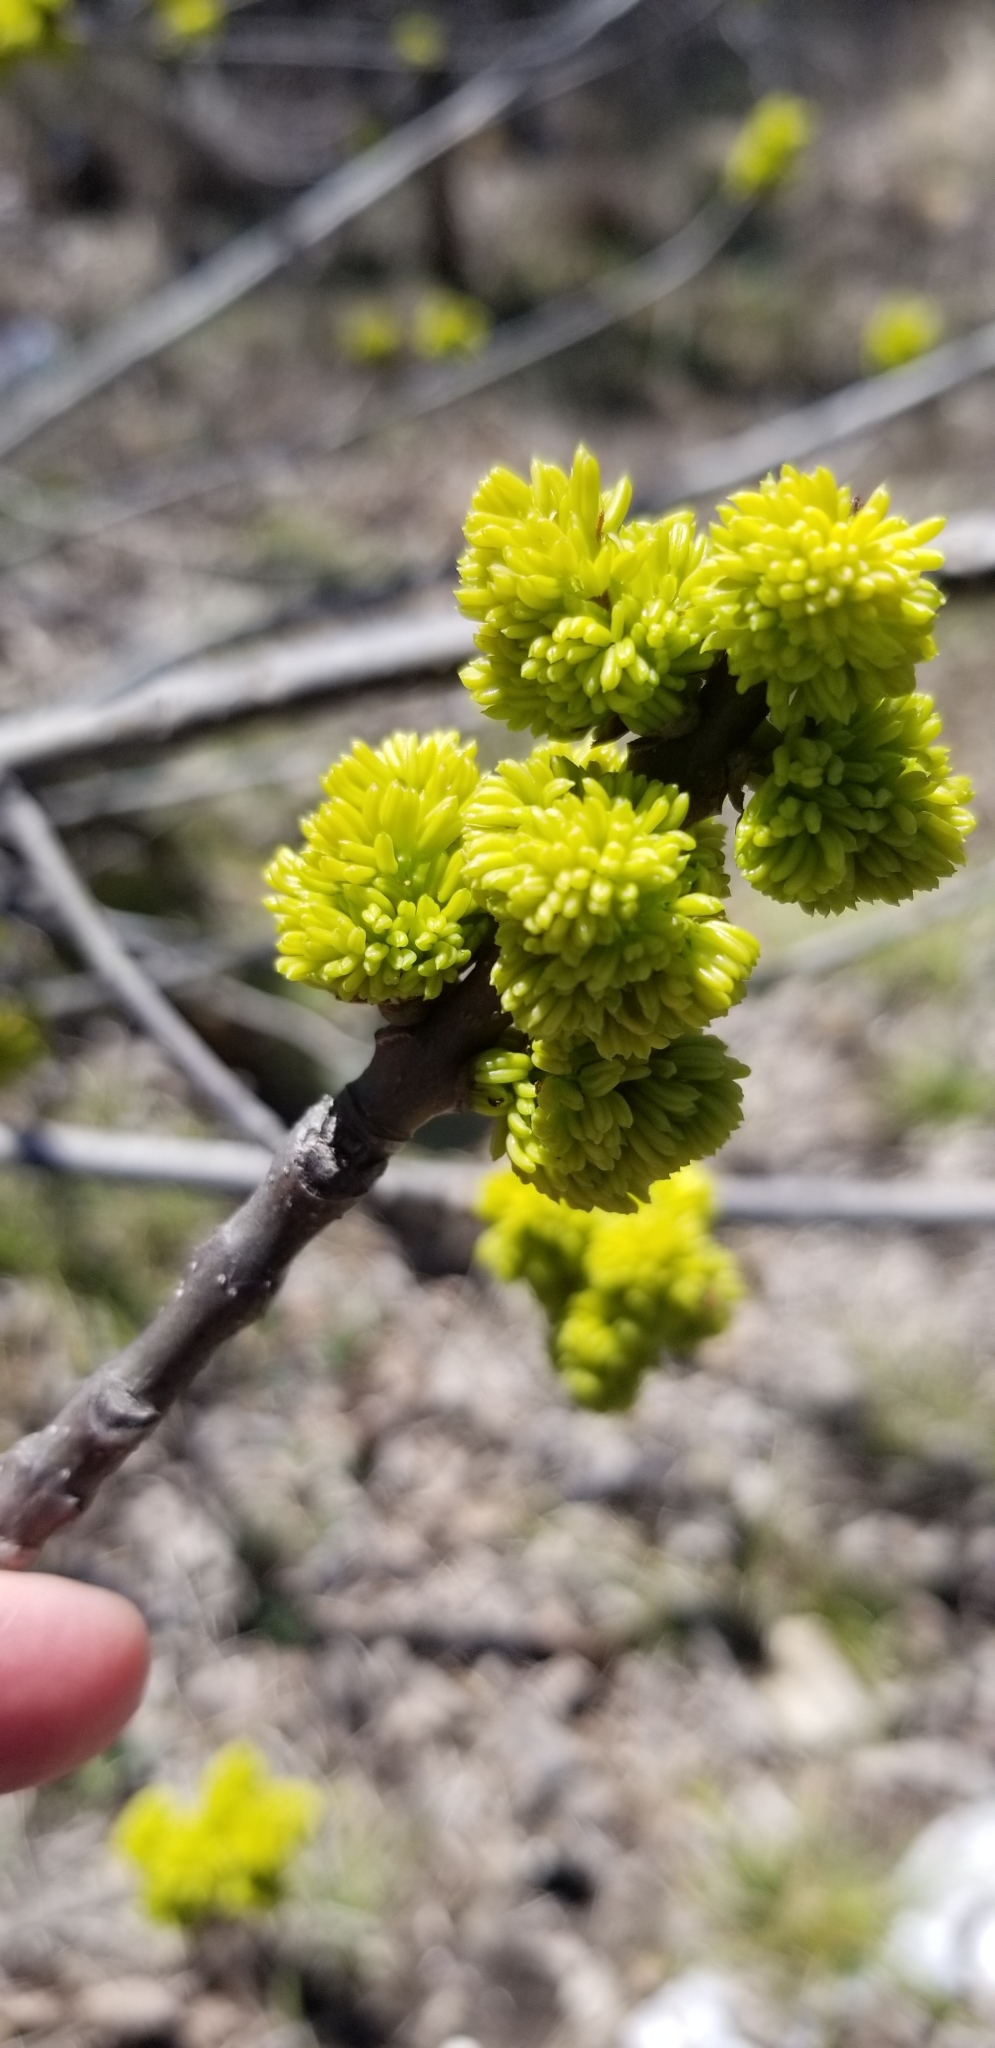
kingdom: Plantae
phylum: Tracheophyta
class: Magnoliopsida
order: Lamiales
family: Oleaceae
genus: Fraxinus
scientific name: Fraxinus albicans
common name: Texas ash
